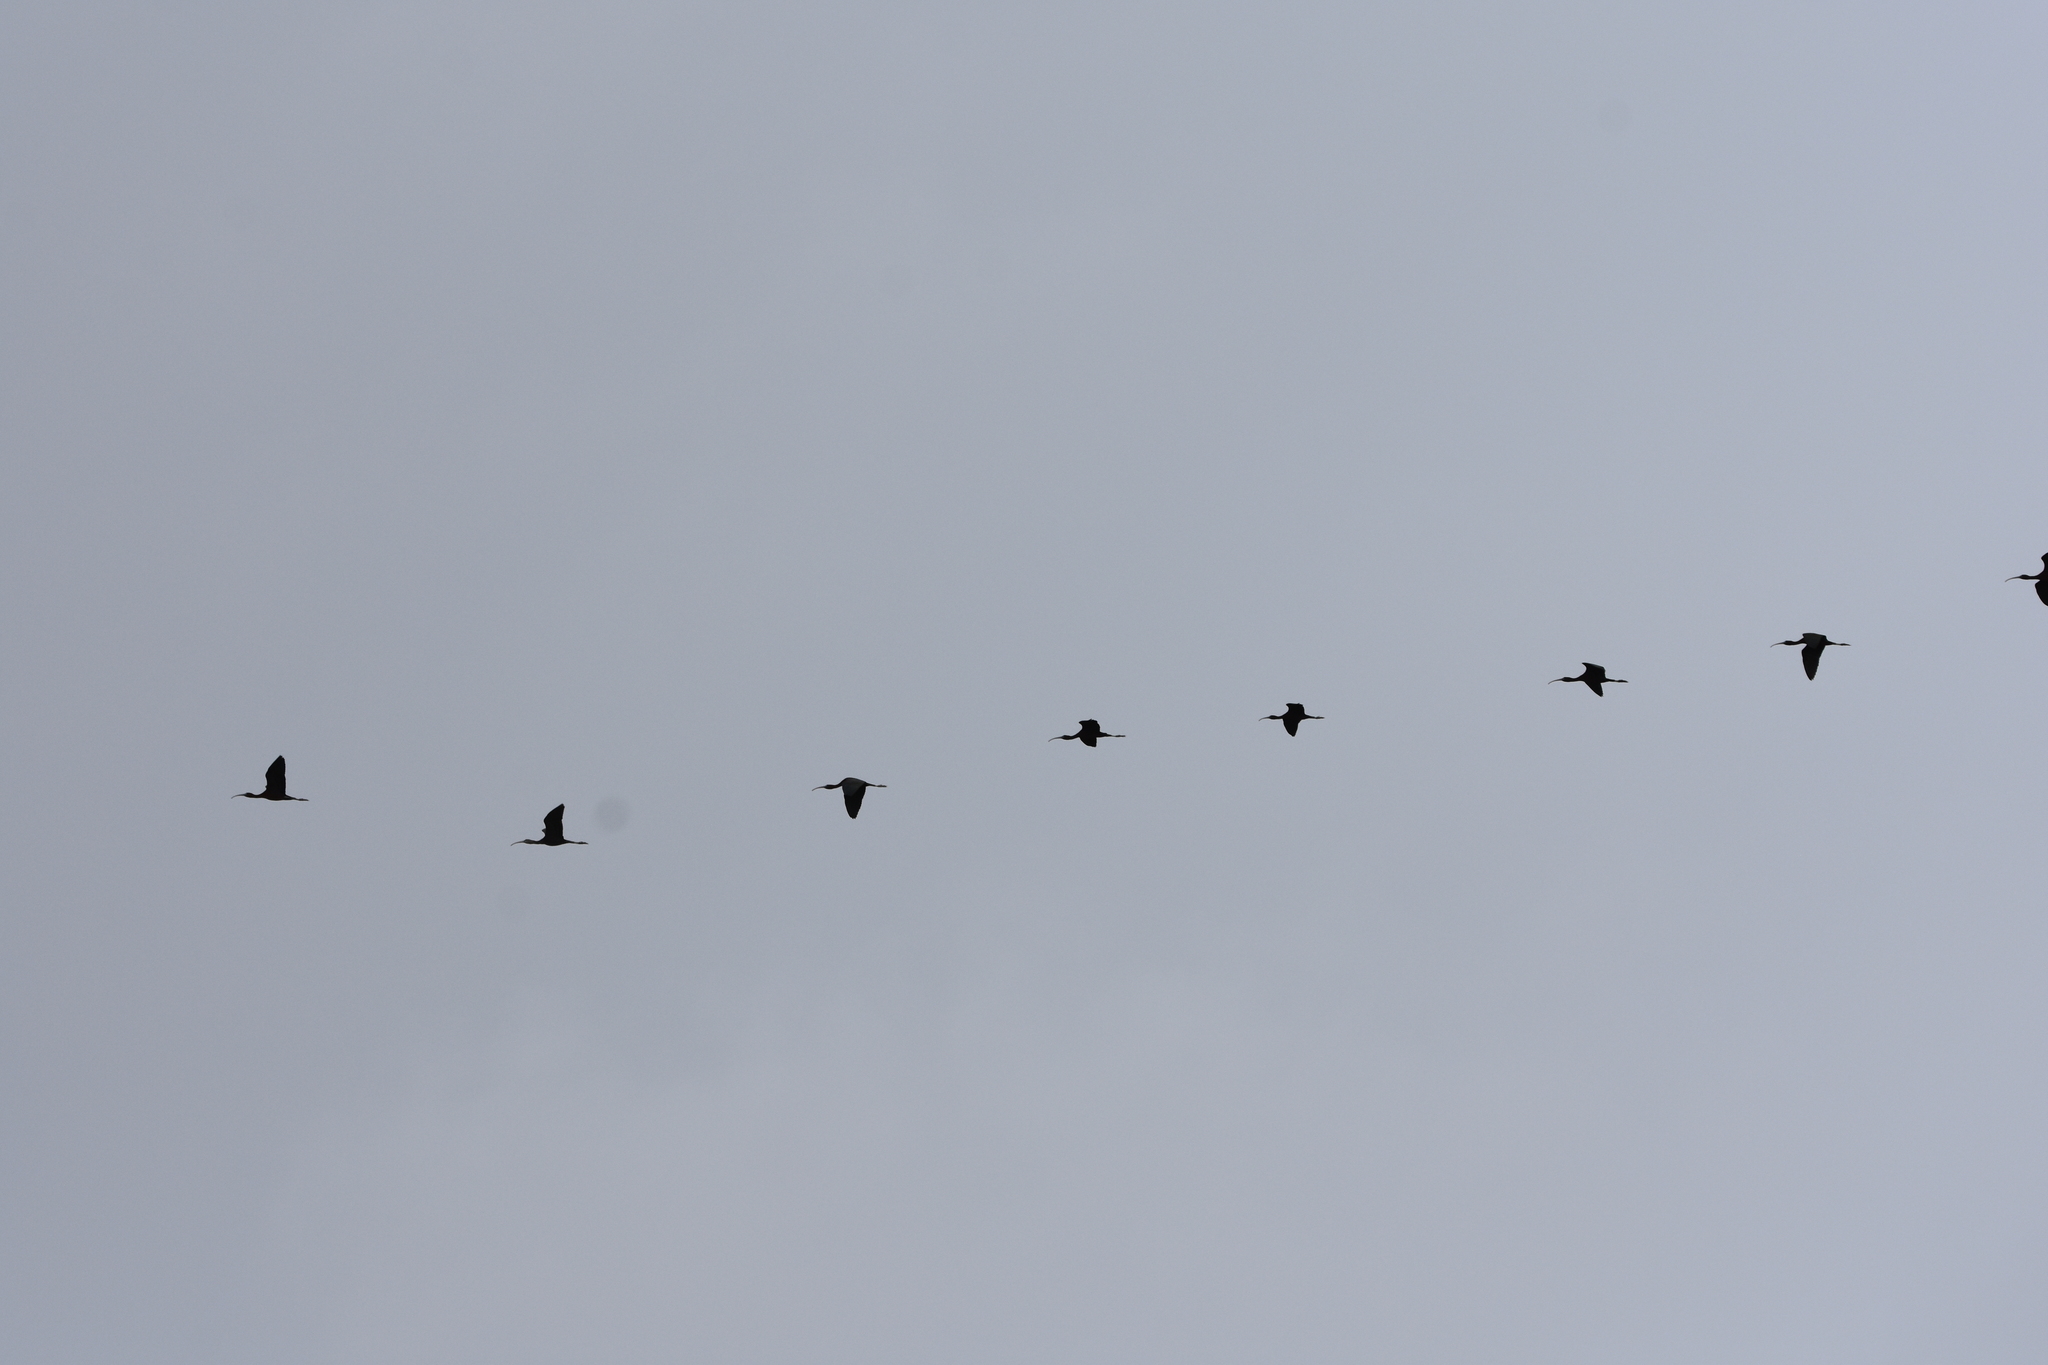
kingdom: Animalia
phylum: Chordata
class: Aves
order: Pelecaniformes
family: Threskiornithidae
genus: Plegadis
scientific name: Plegadis falcinellus
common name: Glossy ibis
